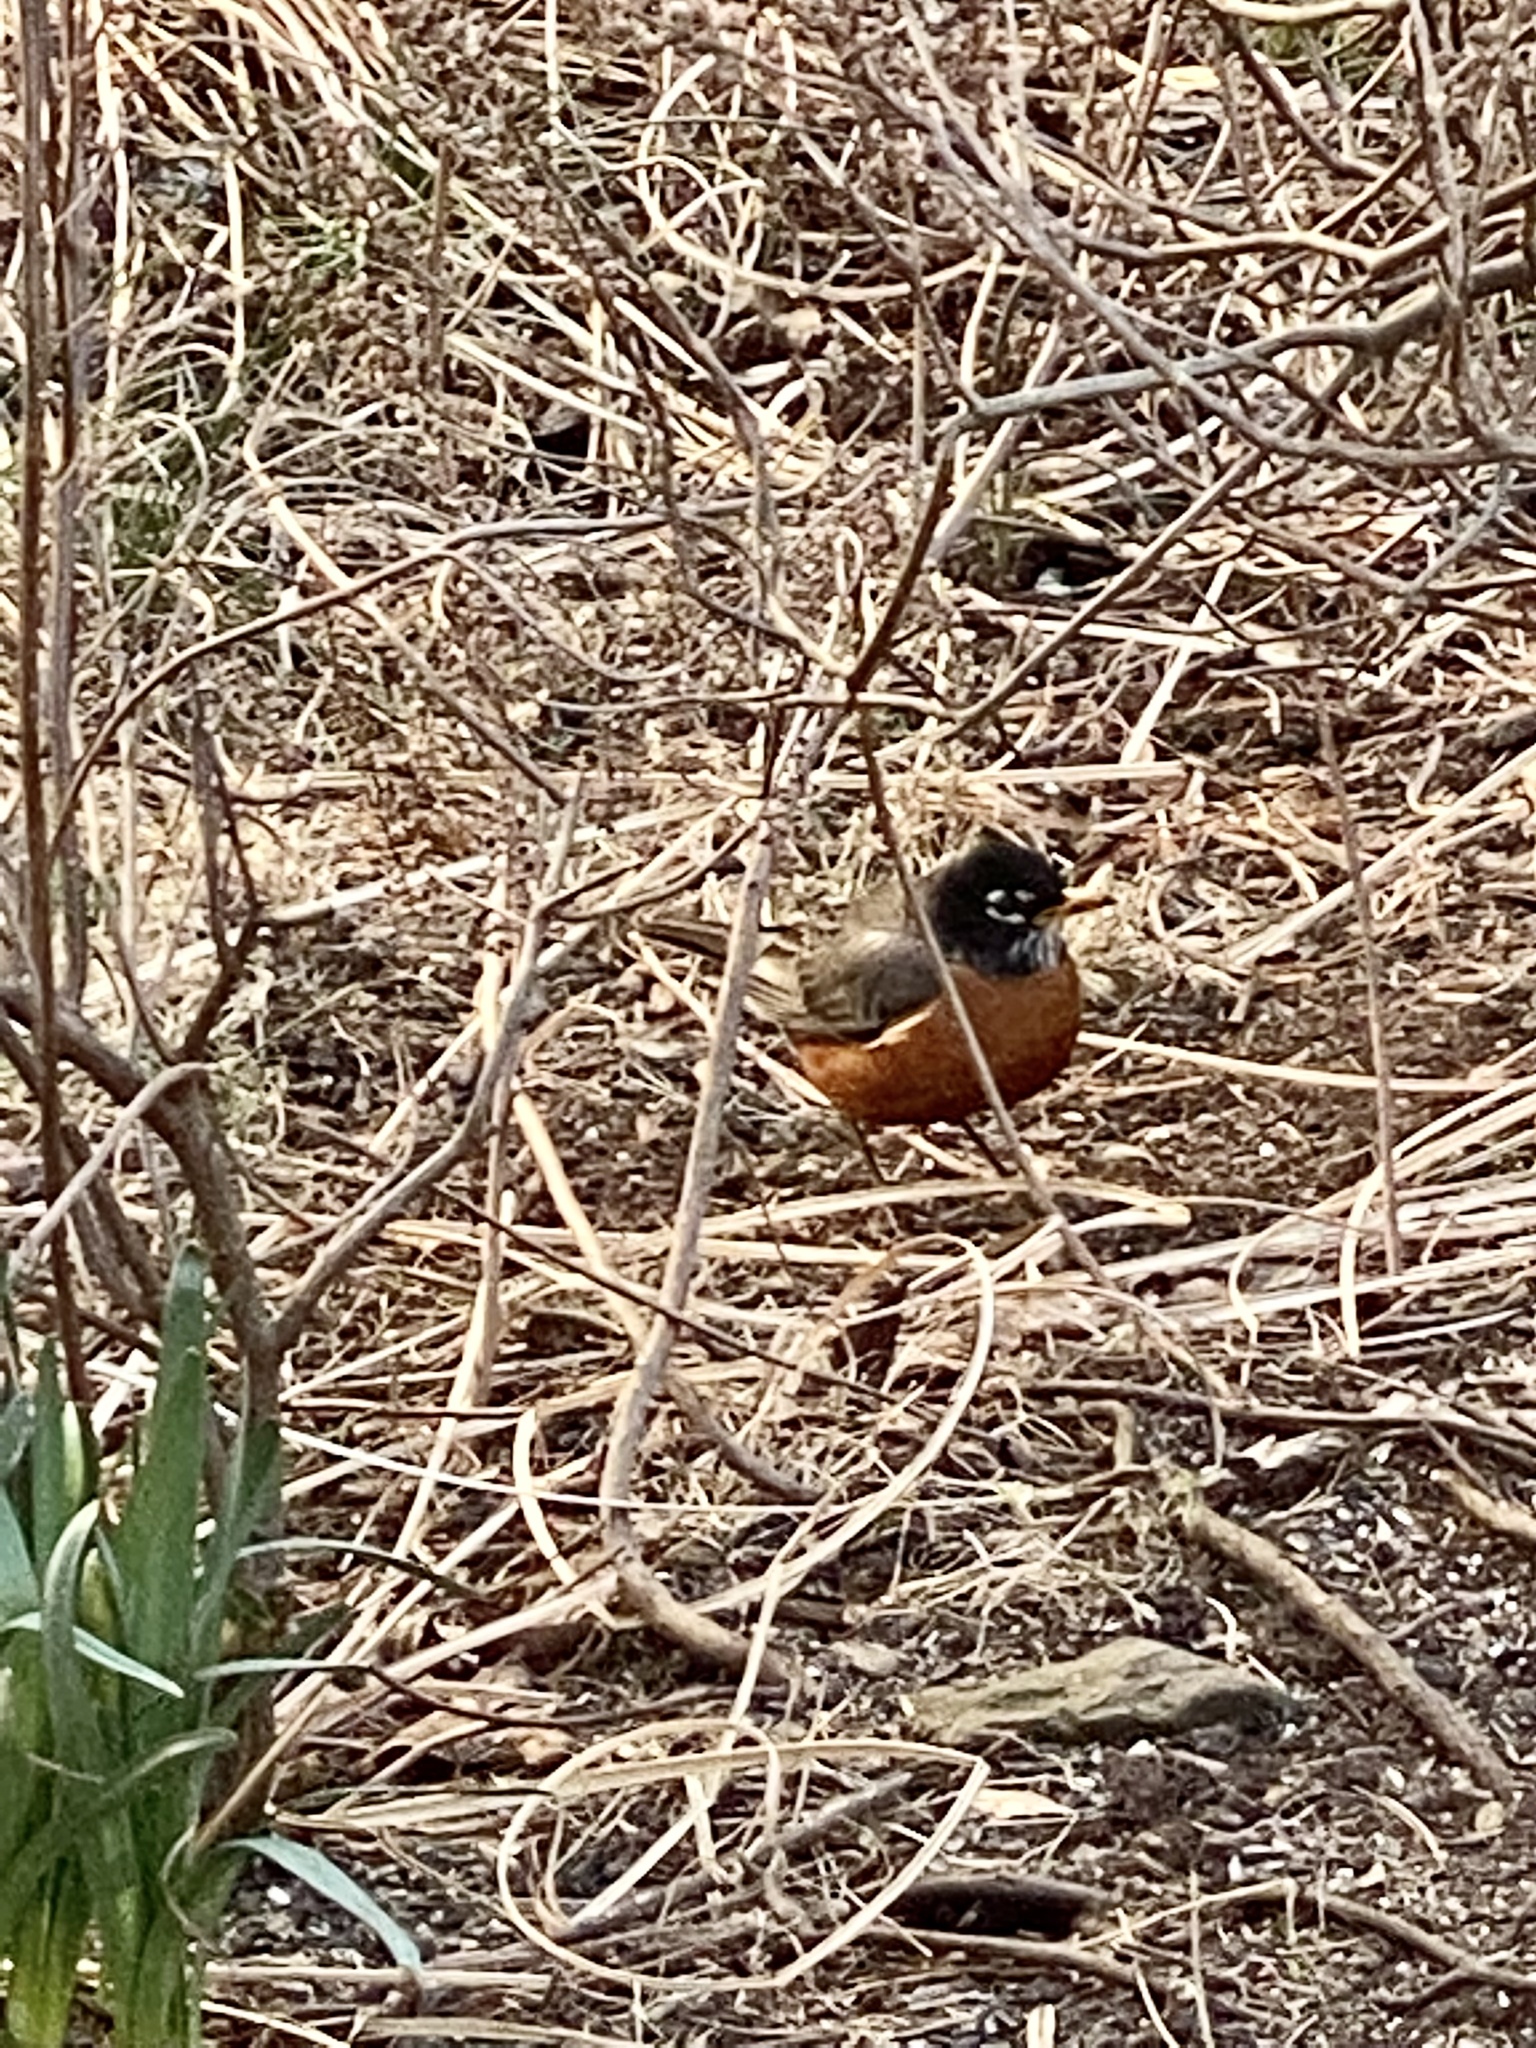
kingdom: Animalia
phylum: Chordata
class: Aves
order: Passeriformes
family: Turdidae
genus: Turdus
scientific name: Turdus migratorius
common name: American robin
